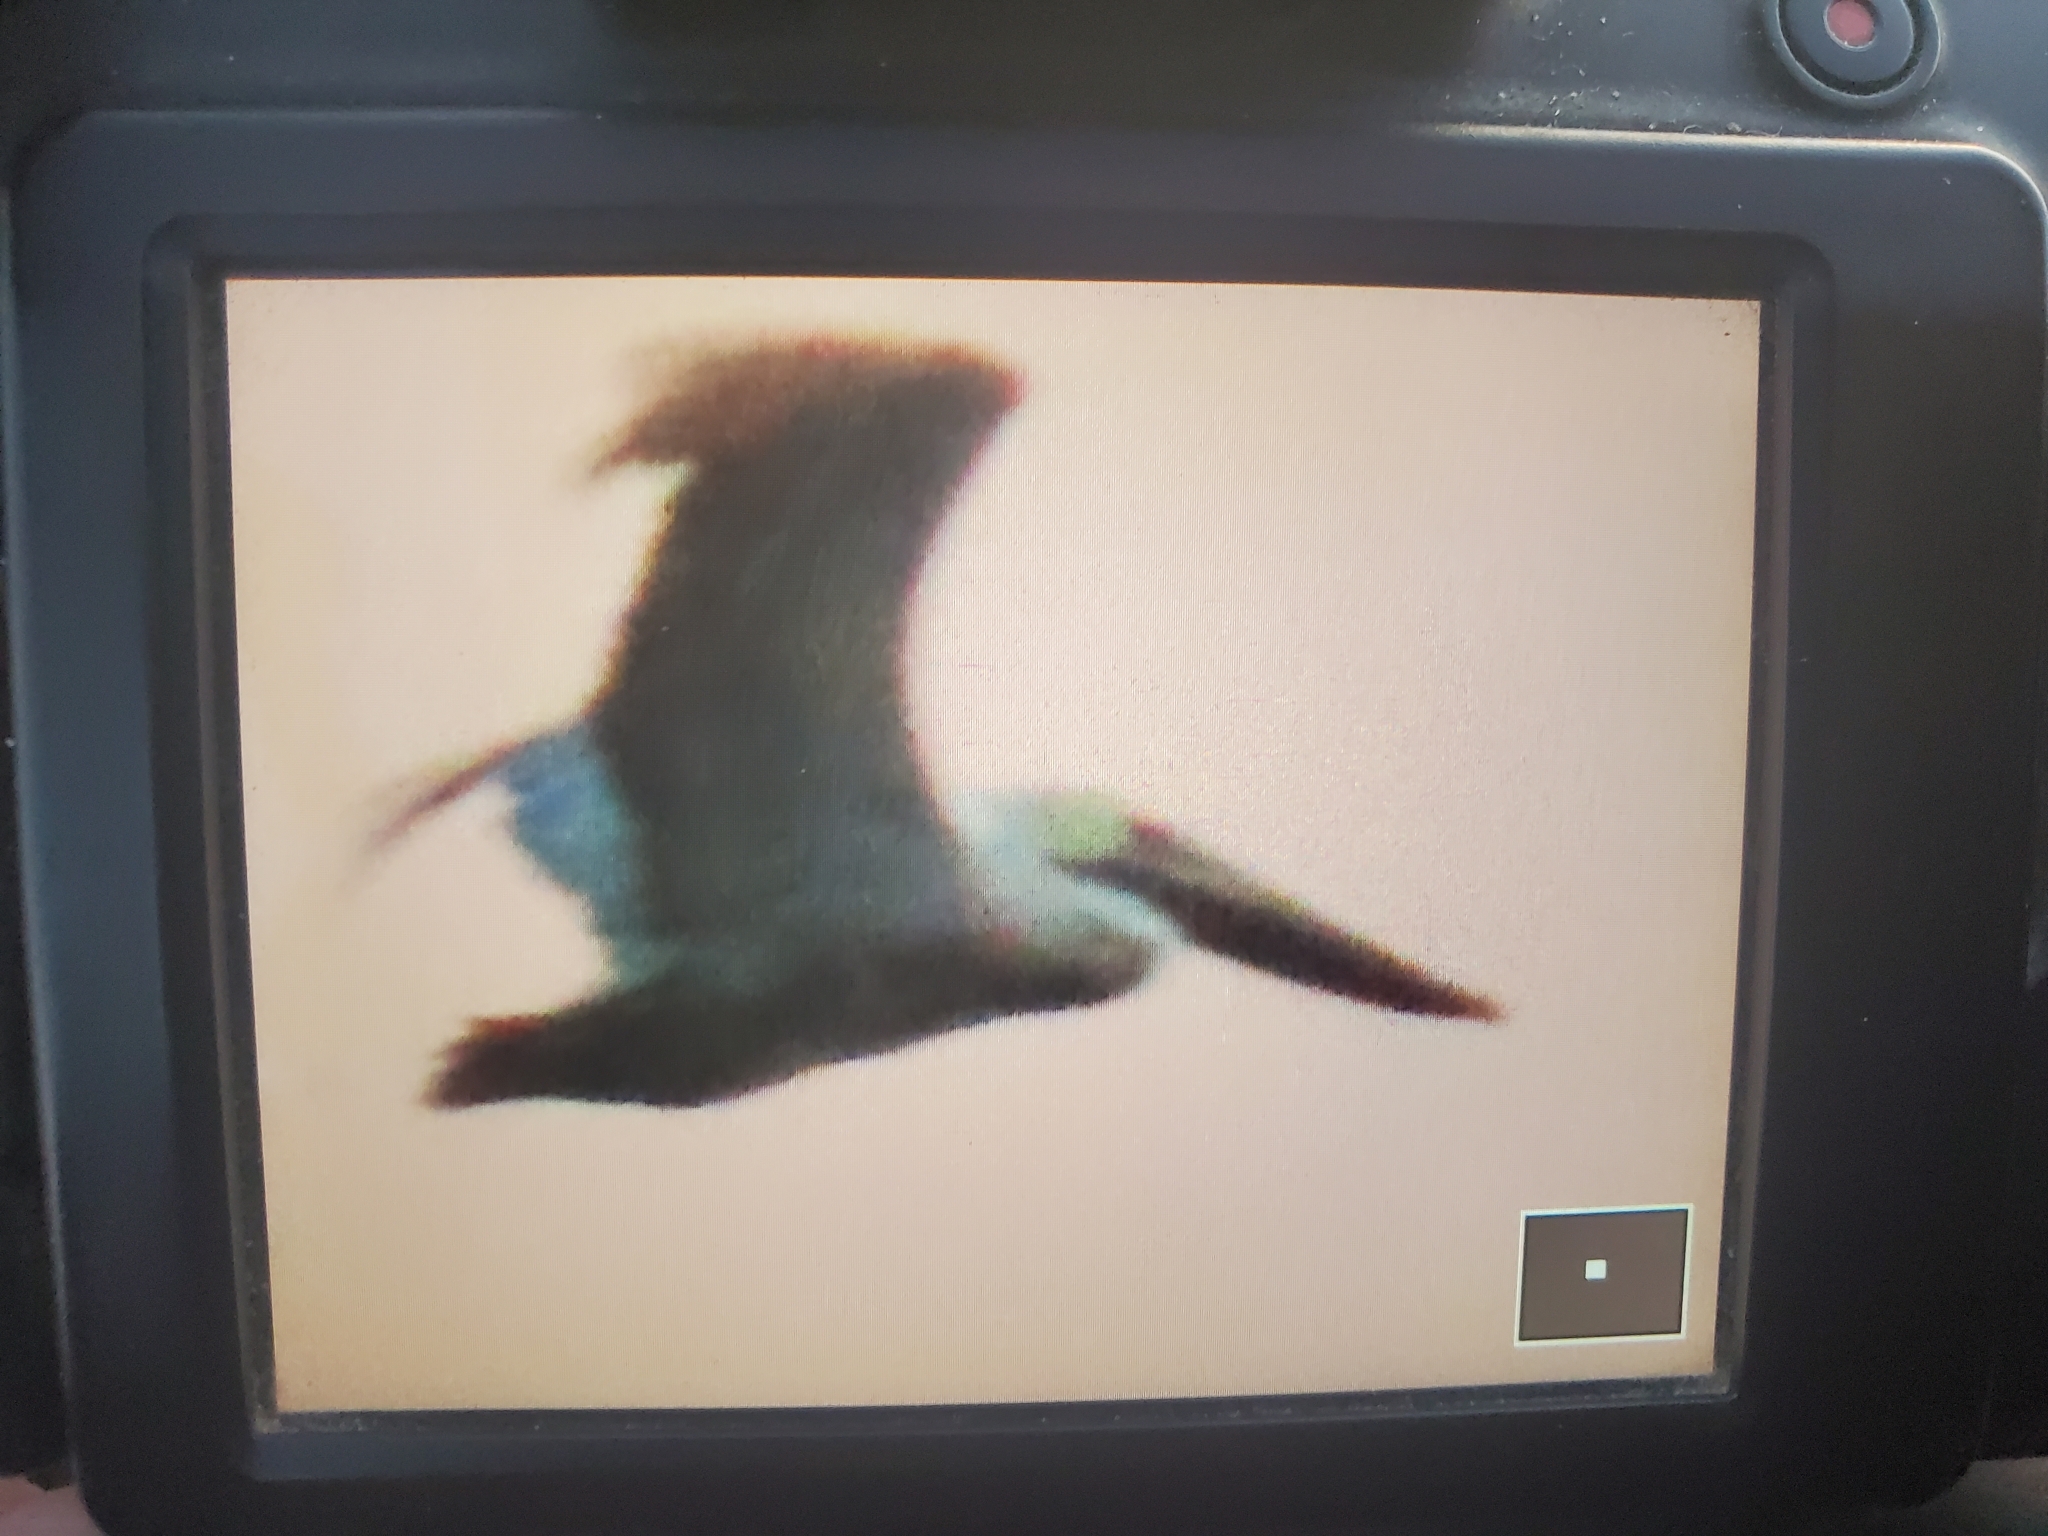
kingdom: Animalia
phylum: Chordata
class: Aves
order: Pelecaniformes
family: Pelecanidae
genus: Pelecanus
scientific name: Pelecanus occidentalis
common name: Brown pelican
